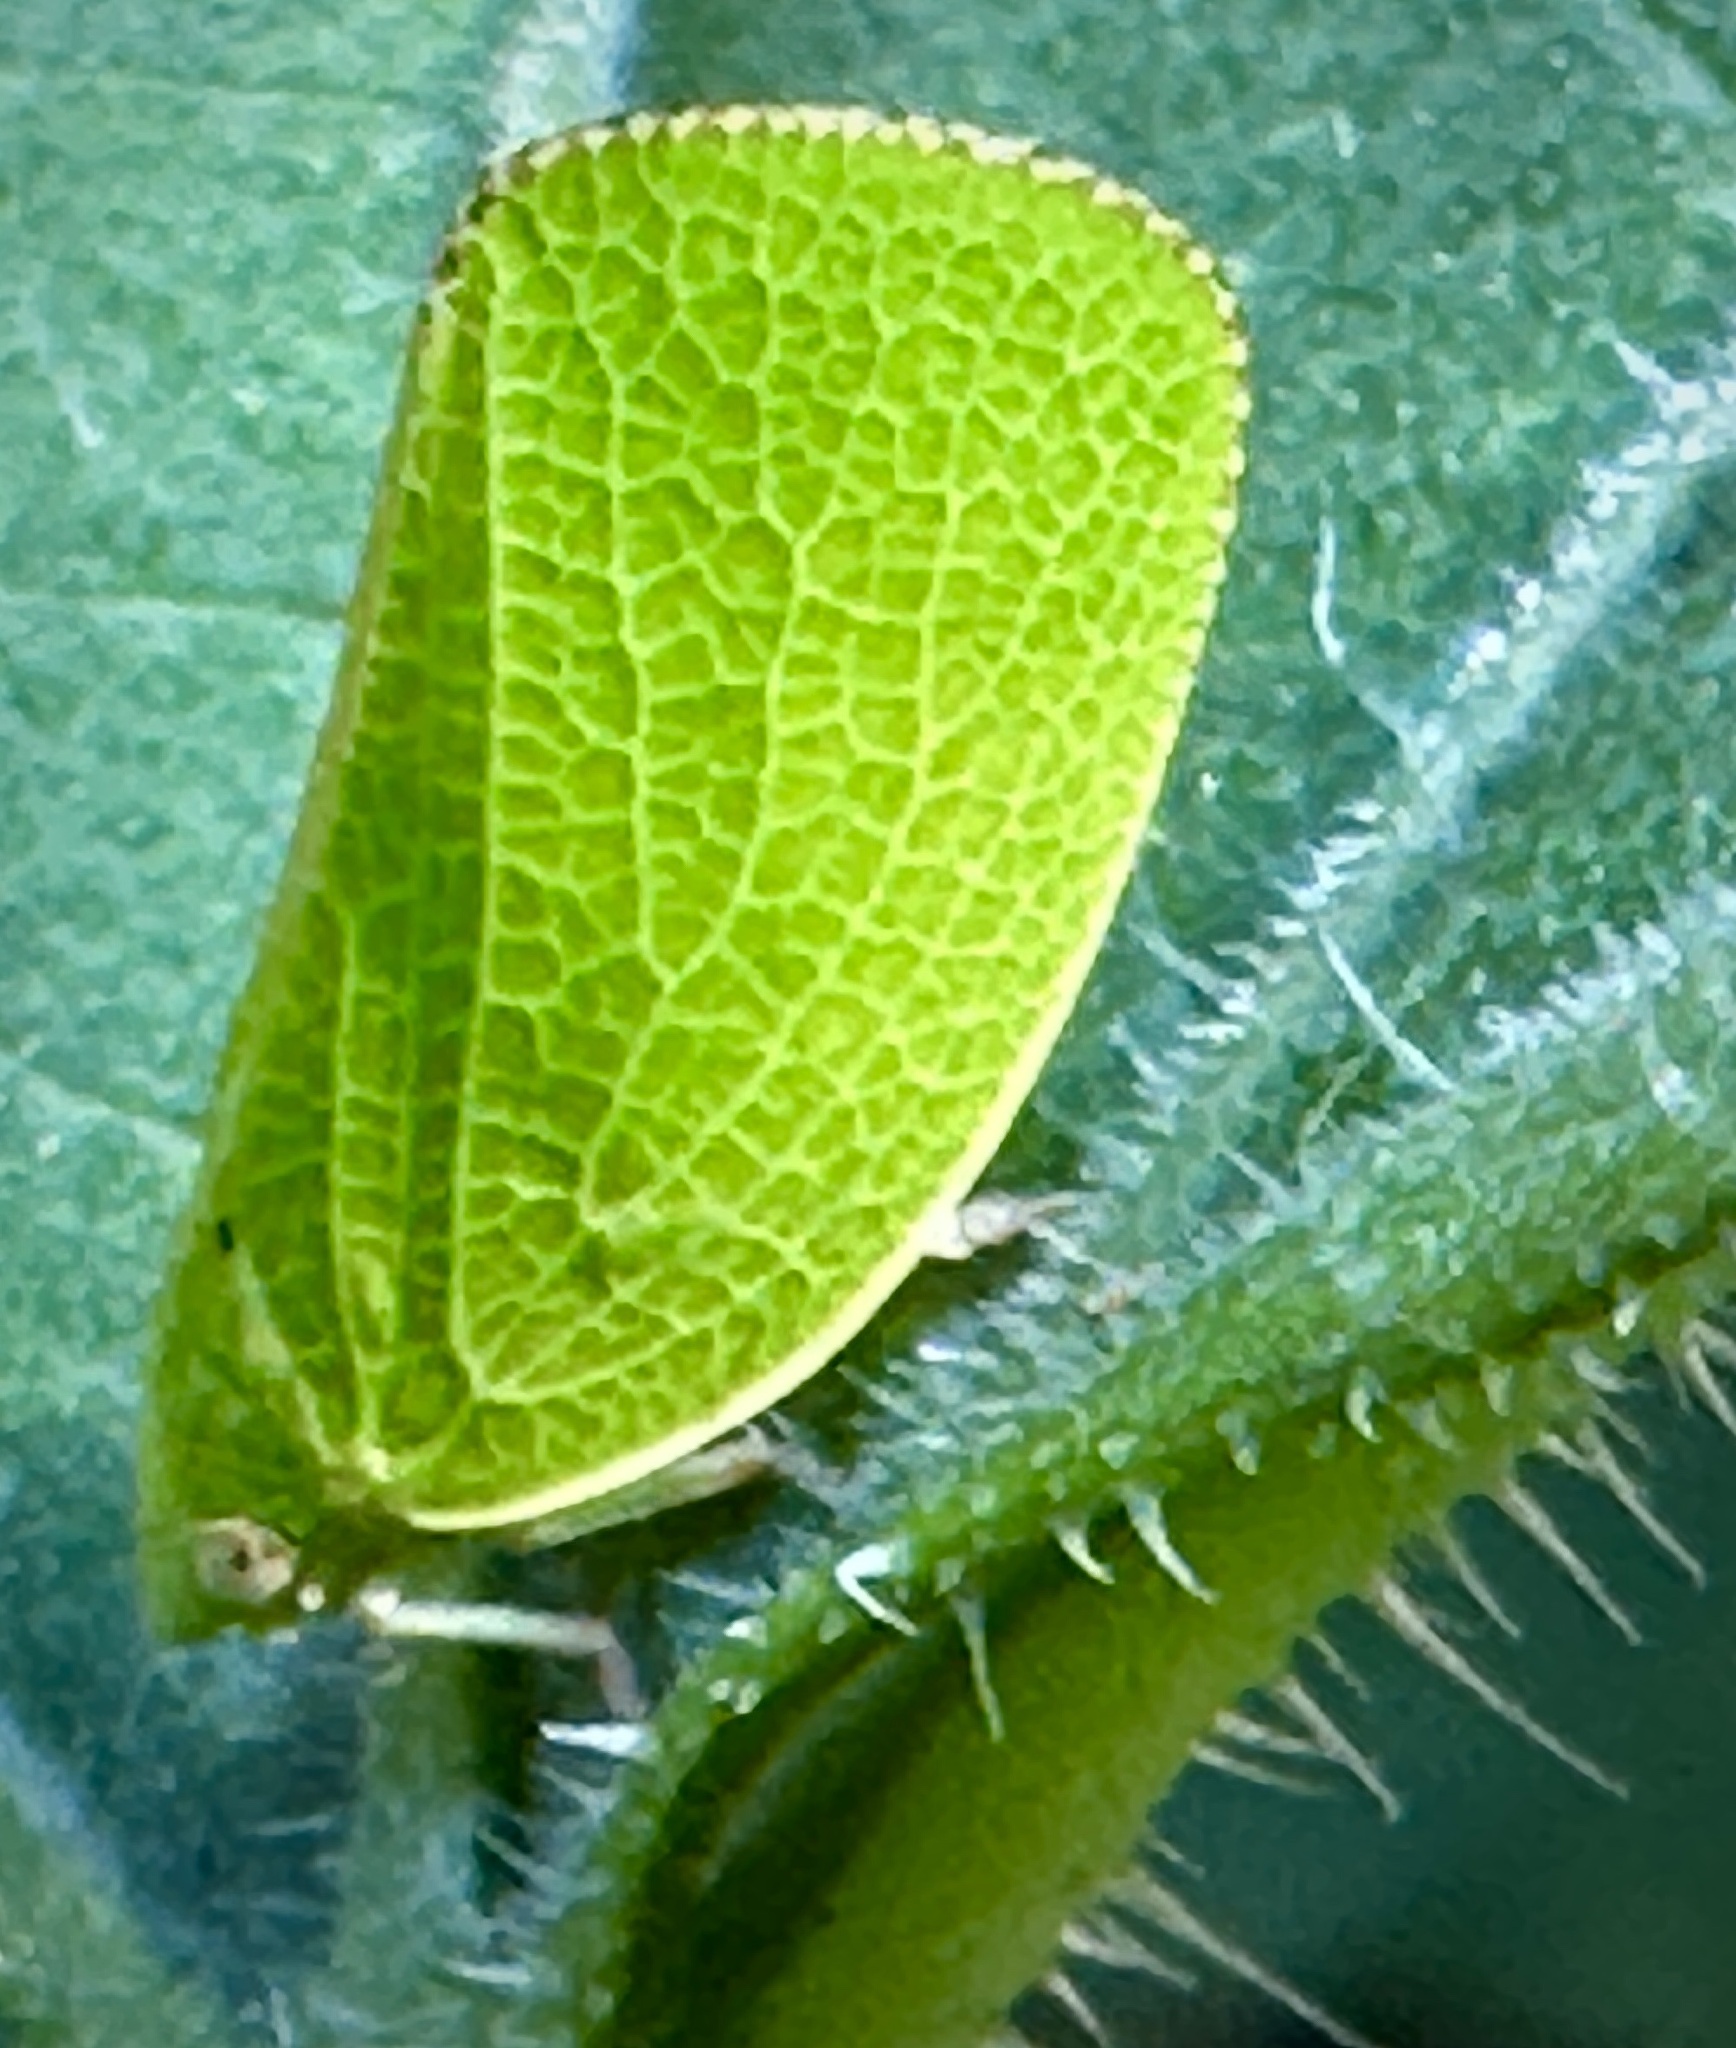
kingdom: Animalia
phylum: Arthropoda
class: Insecta
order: Hemiptera
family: Acanaloniidae
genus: Acanalonia
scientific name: Acanalonia conica
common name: Green cone-headed planthopper
